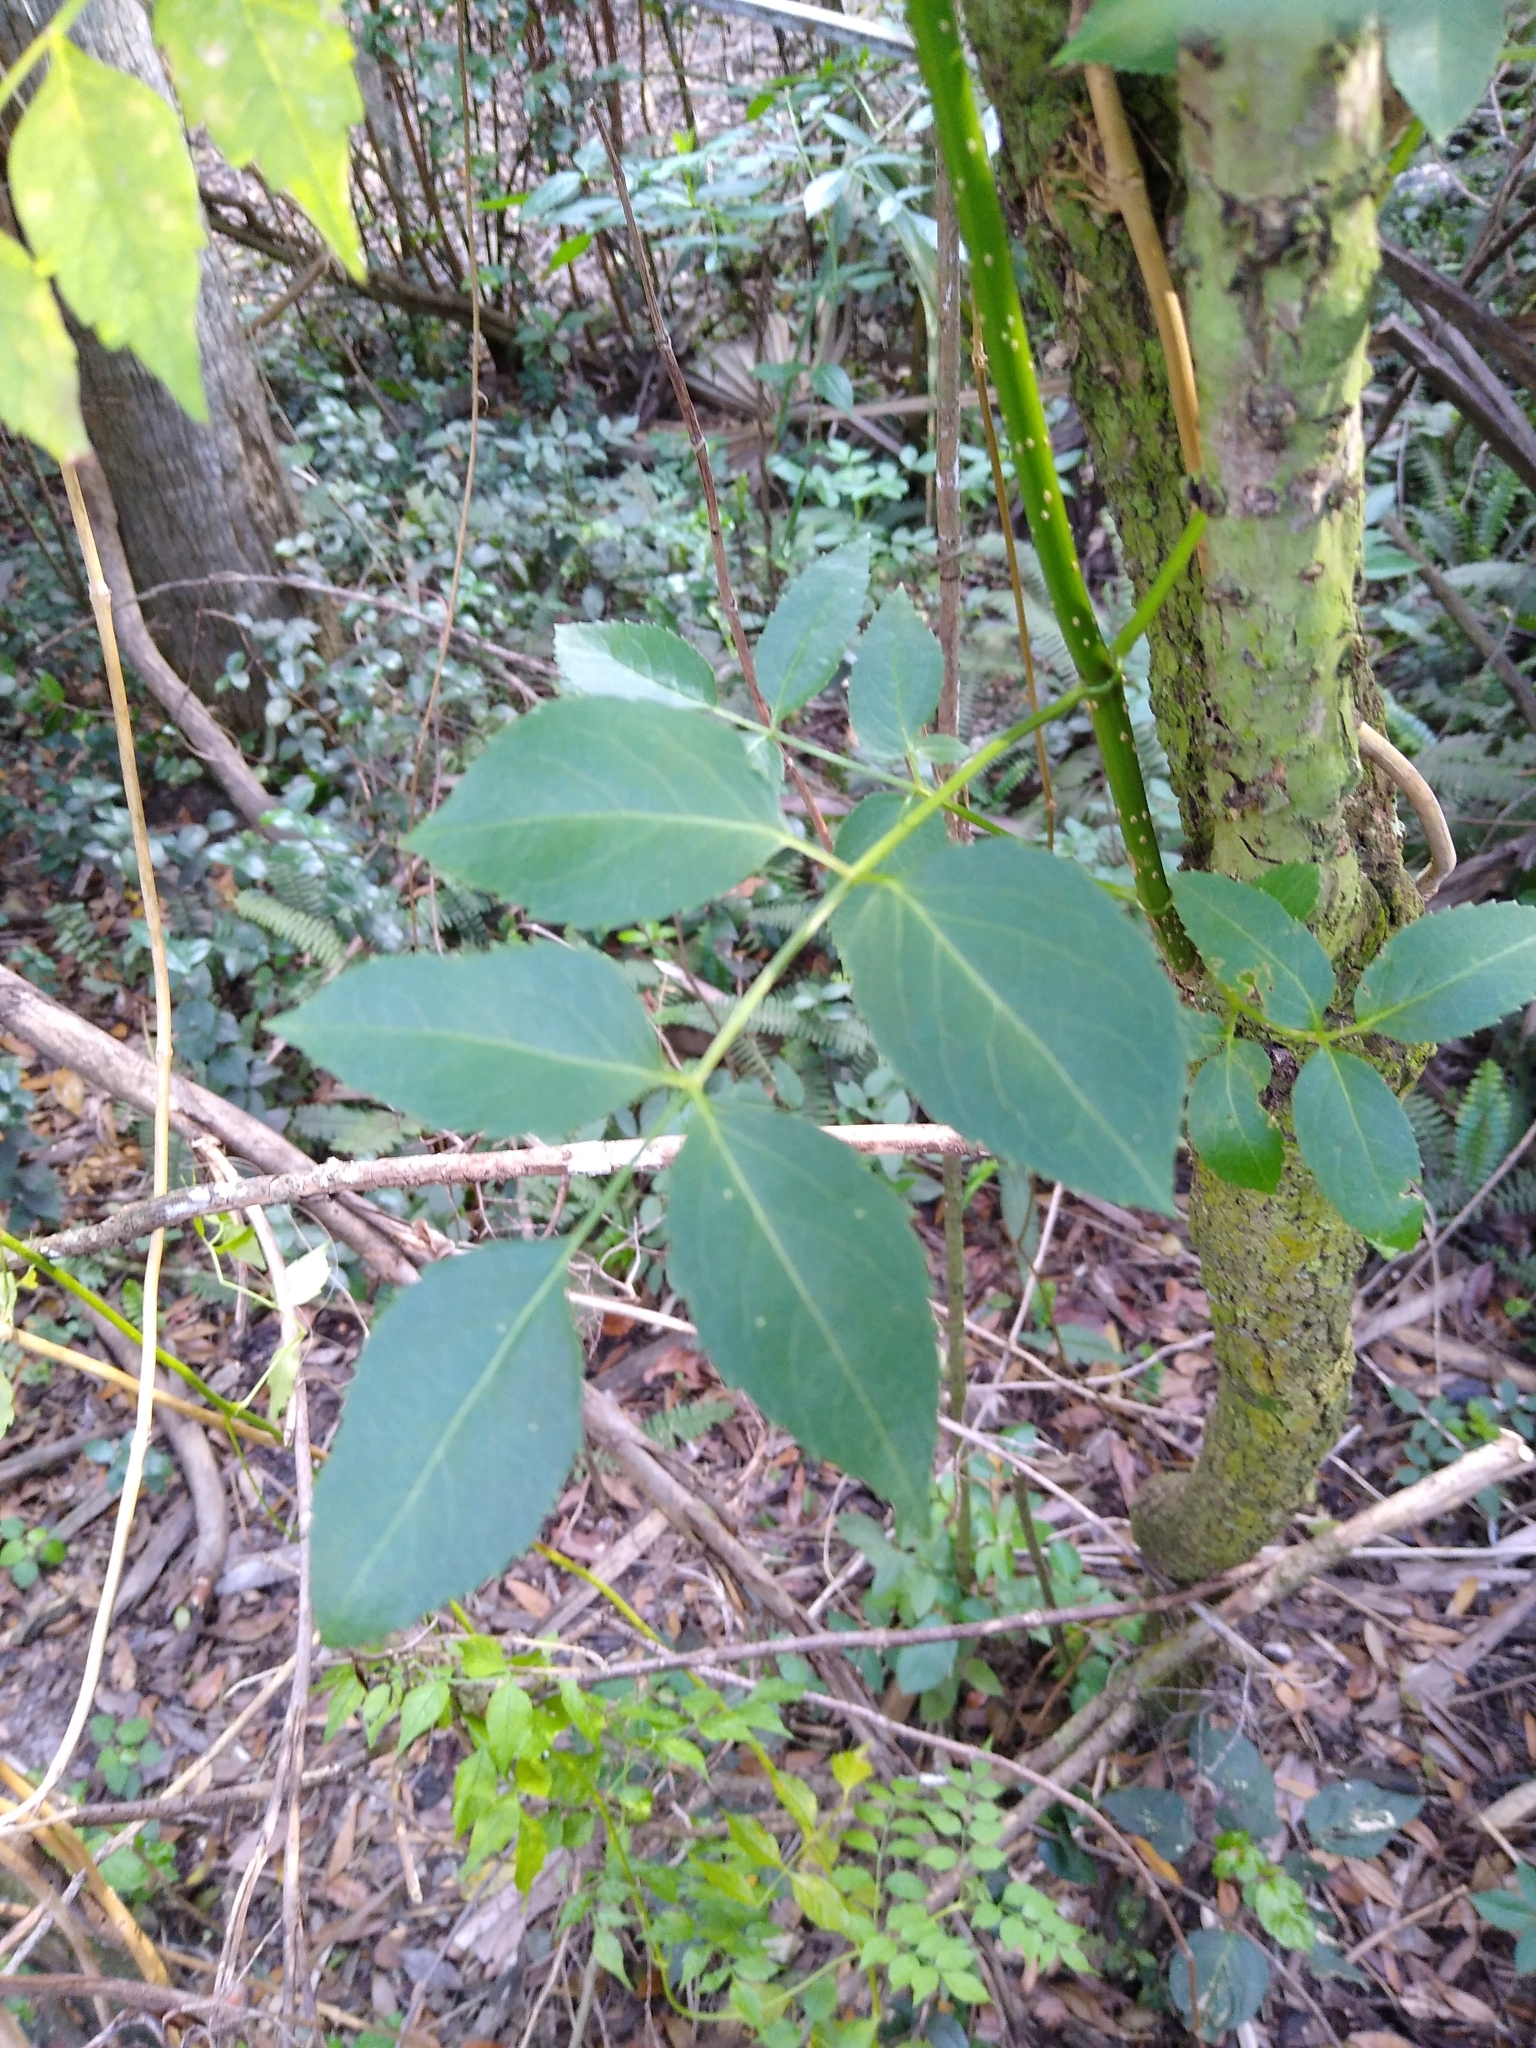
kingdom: Plantae
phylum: Tracheophyta
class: Magnoliopsida
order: Dipsacales
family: Viburnaceae
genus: Sambucus
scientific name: Sambucus canadensis
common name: American elder
